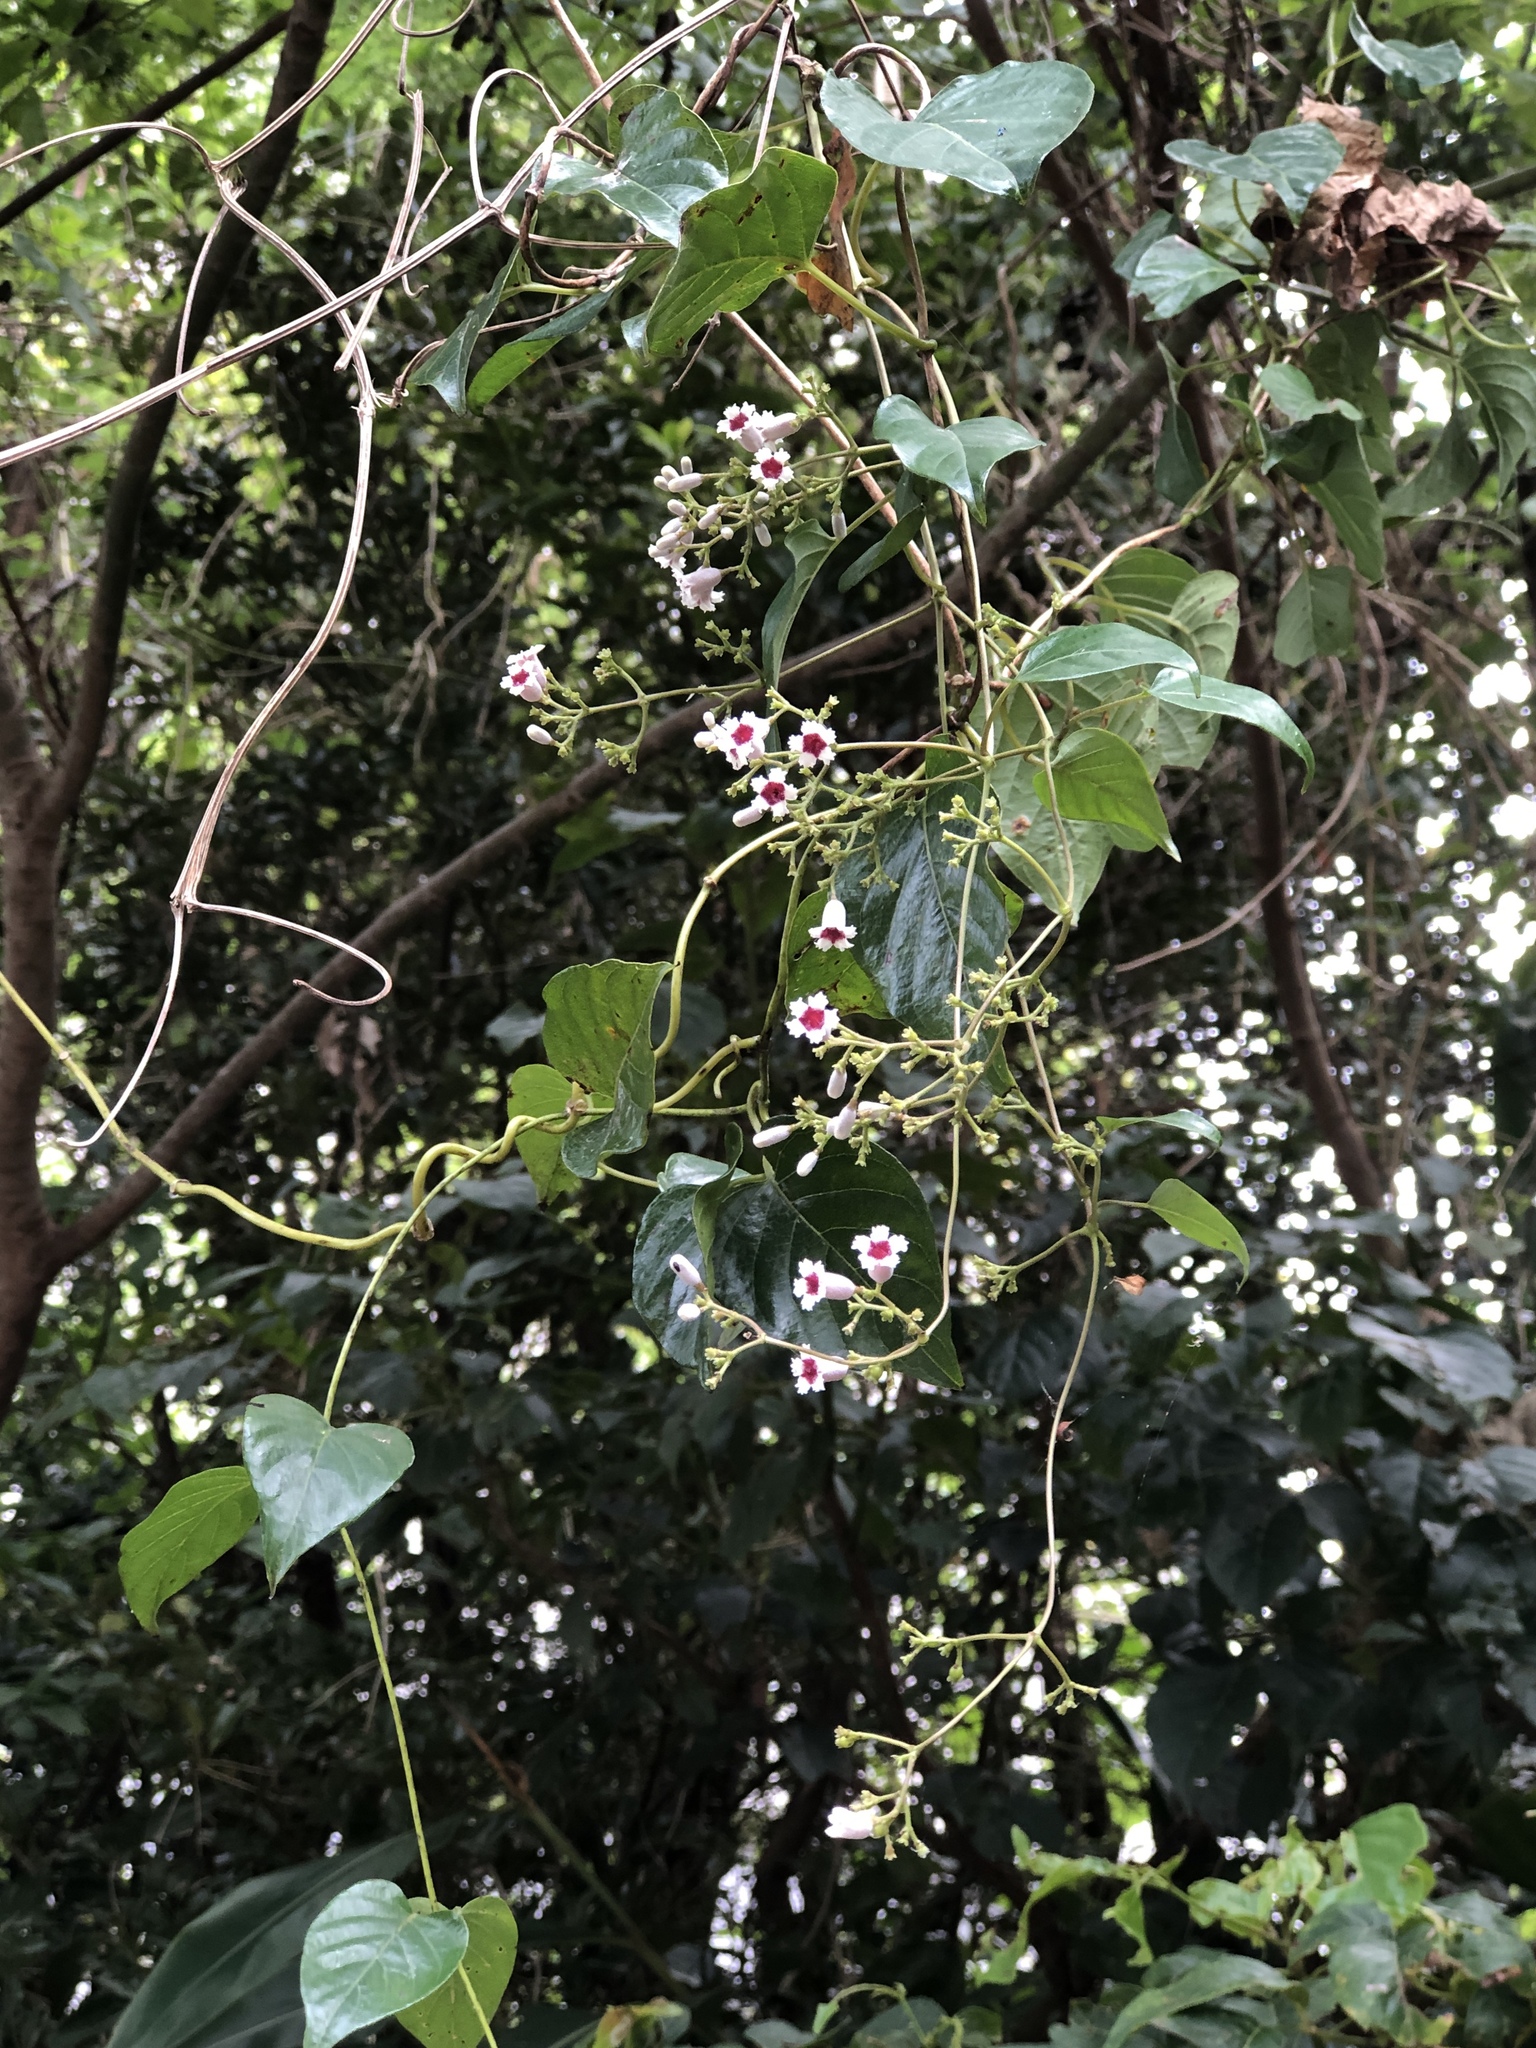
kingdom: Plantae
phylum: Tracheophyta
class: Magnoliopsida
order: Gentianales
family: Rubiaceae
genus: Paederia
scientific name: Paederia foetida
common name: Stinkvine
